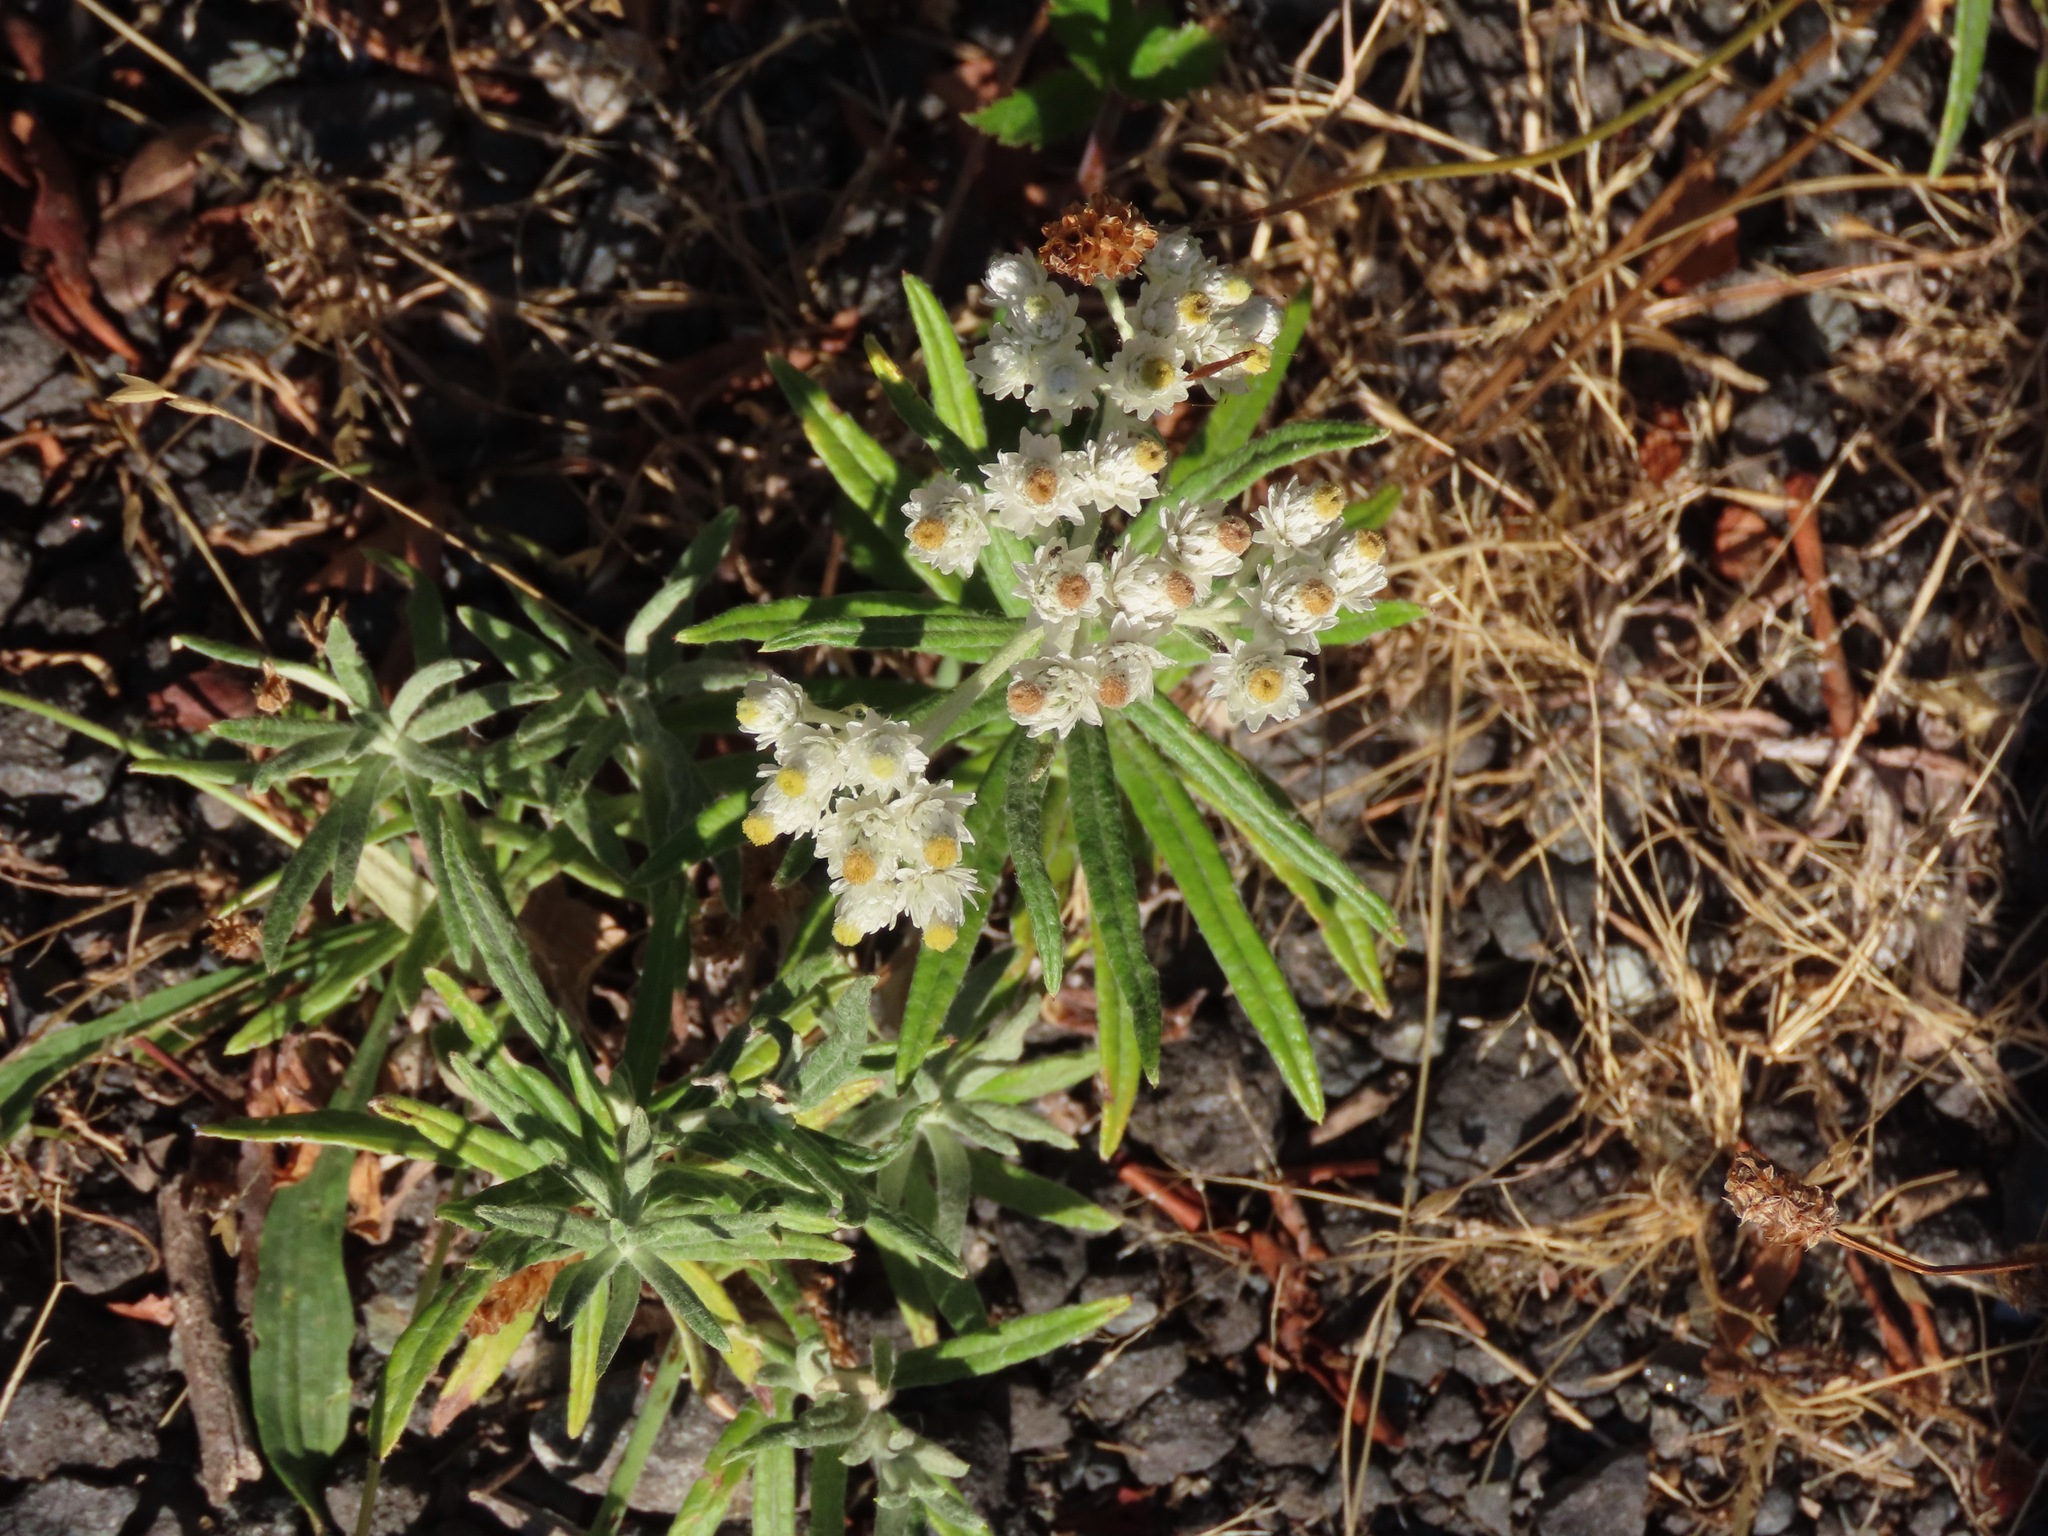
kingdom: Plantae
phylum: Tracheophyta
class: Magnoliopsida
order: Asterales
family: Asteraceae
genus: Anaphalis
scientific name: Anaphalis margaritacea
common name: Pearly everlasting
